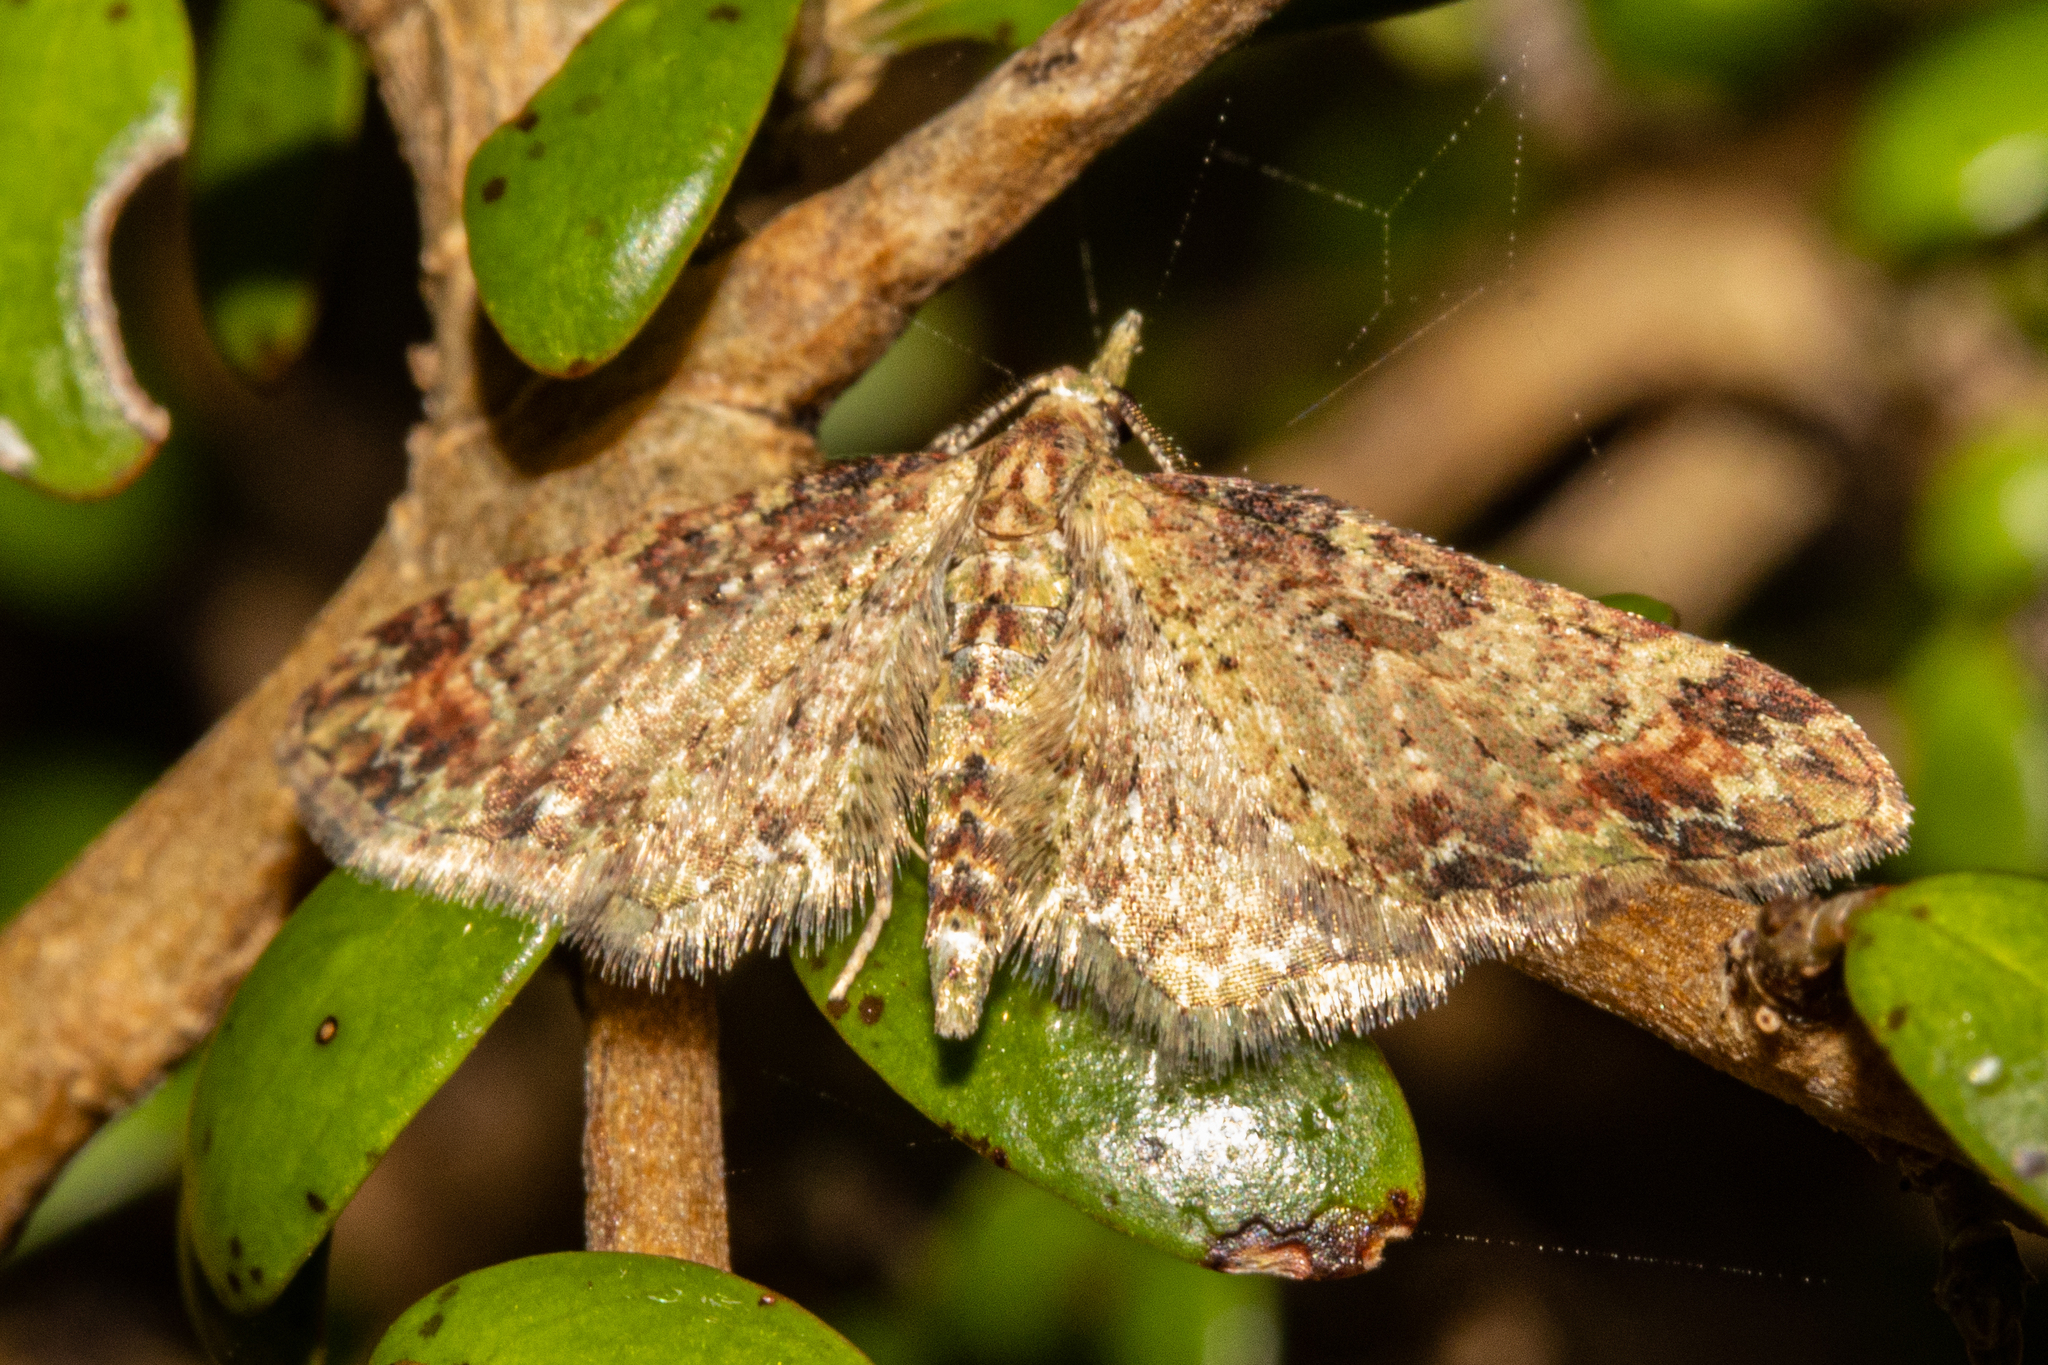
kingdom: Animalia
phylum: Arthropoda
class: Insecta
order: Lepidoptera
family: Geometridae
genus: Pasiphila
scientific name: Pasiphila plinthina
